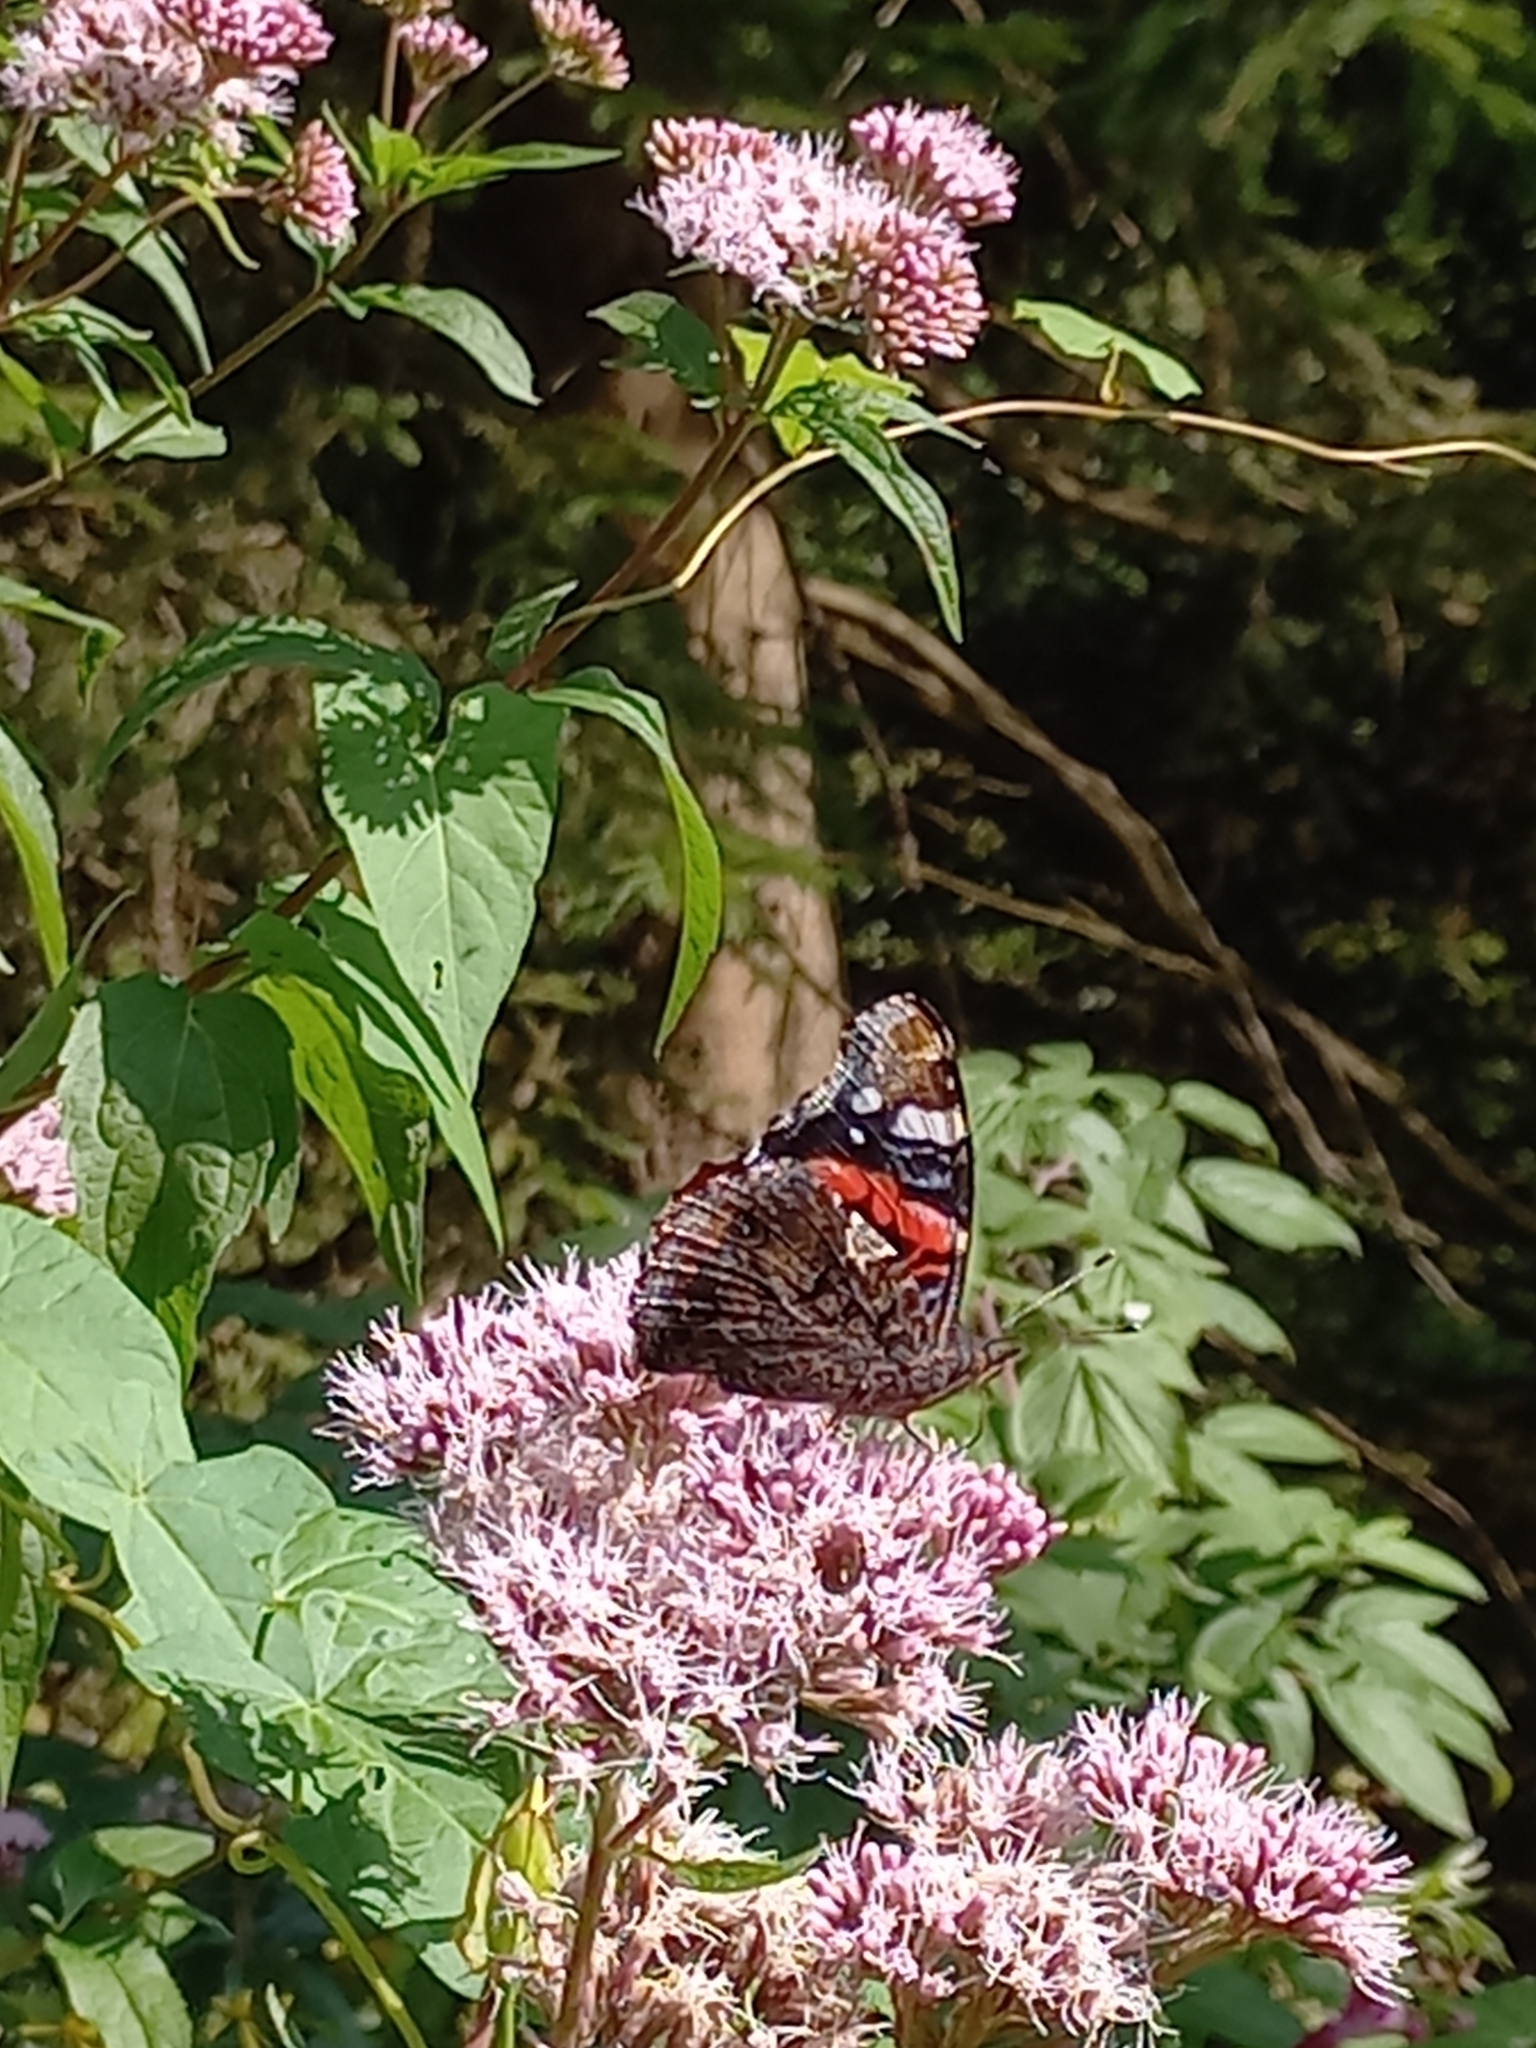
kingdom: Animalia
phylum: Arthropoda
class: Insecta
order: Lepidoptera
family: Nymphalidae
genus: Vanessa
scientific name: Vanessa atalanta
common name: Red admiral
